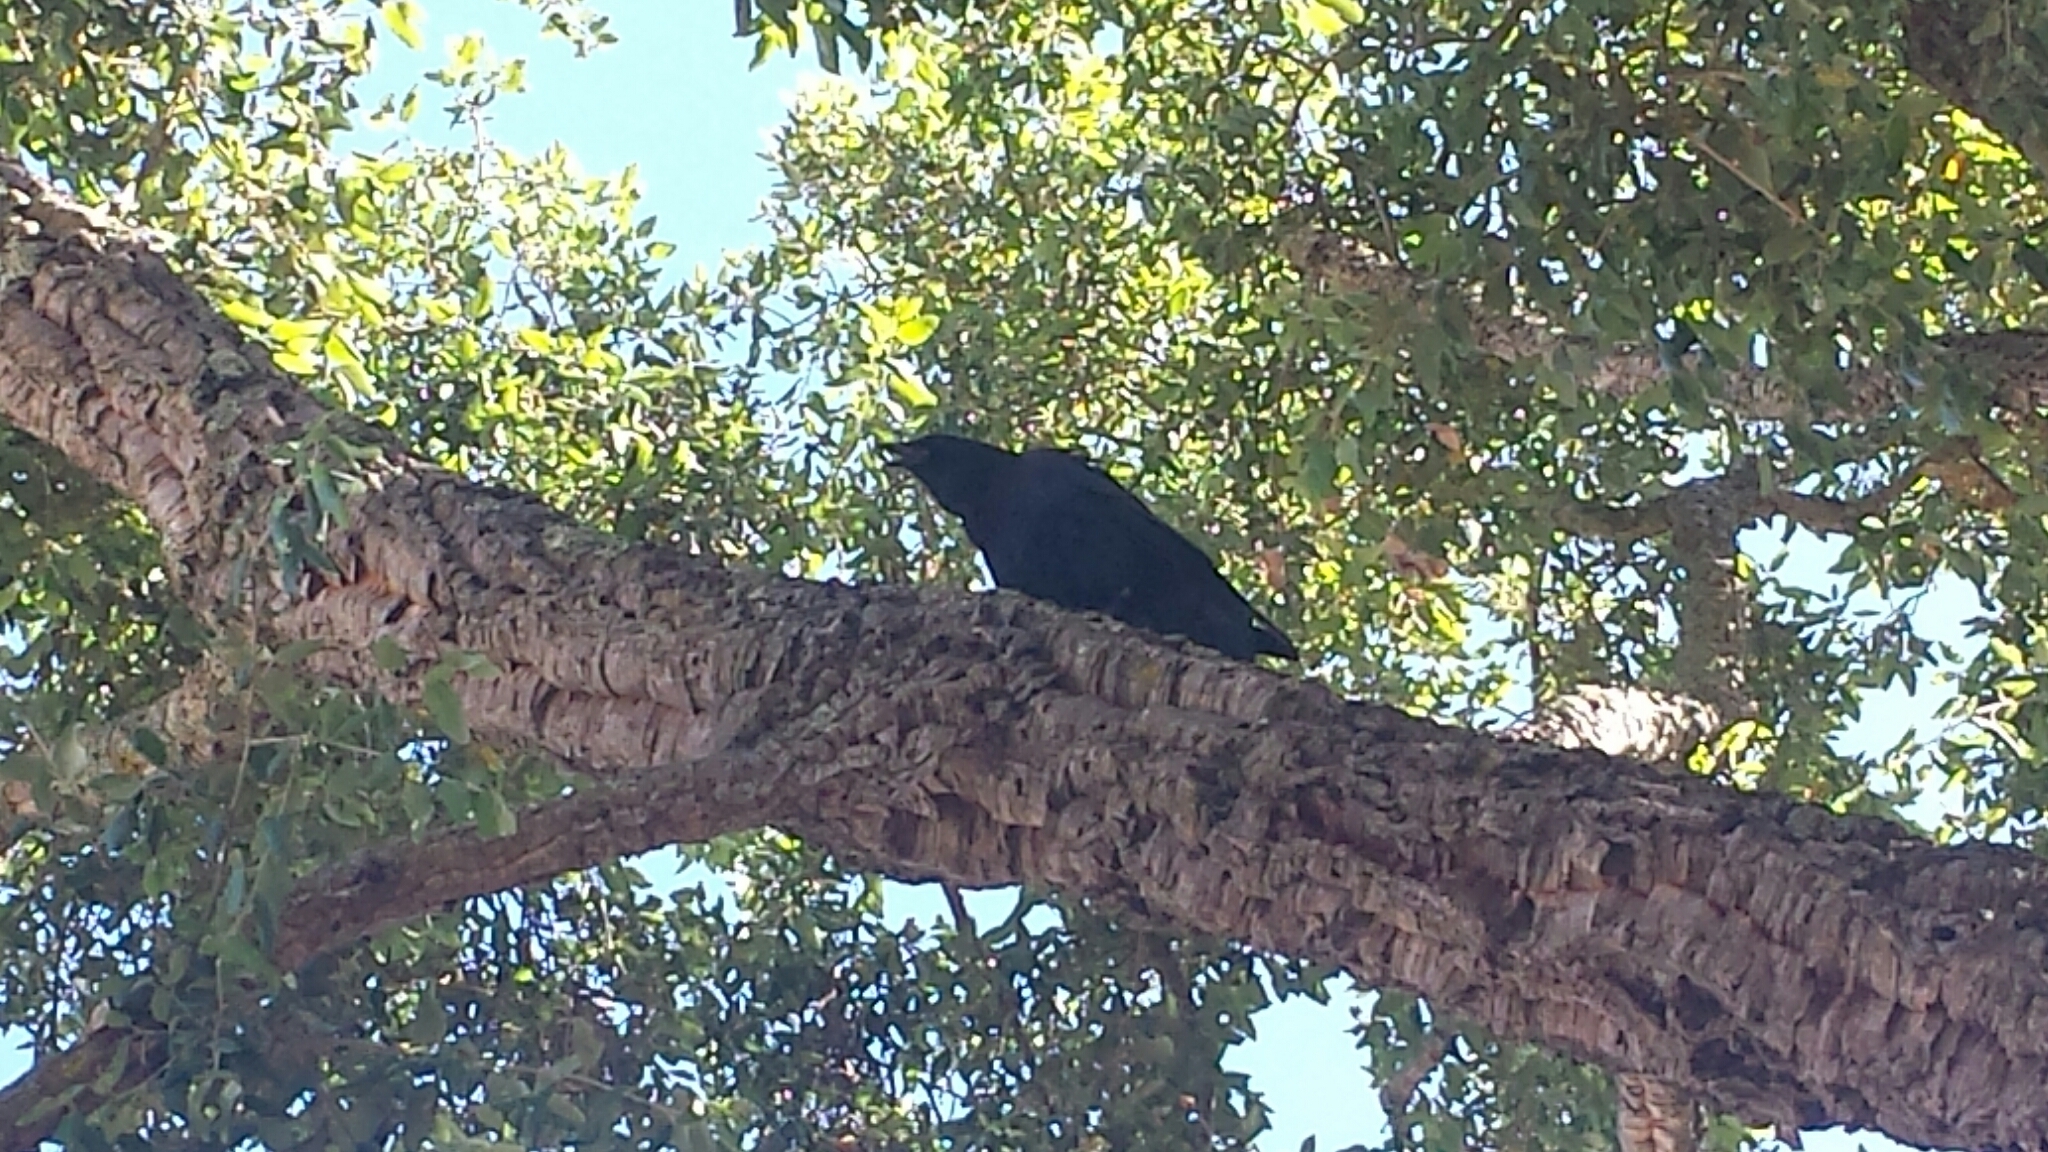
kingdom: Animalia
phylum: Chordata
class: Aves
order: Passeriformes
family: Corvidae
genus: Corvus
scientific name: Corvus brachyrhynchos
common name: American crow
